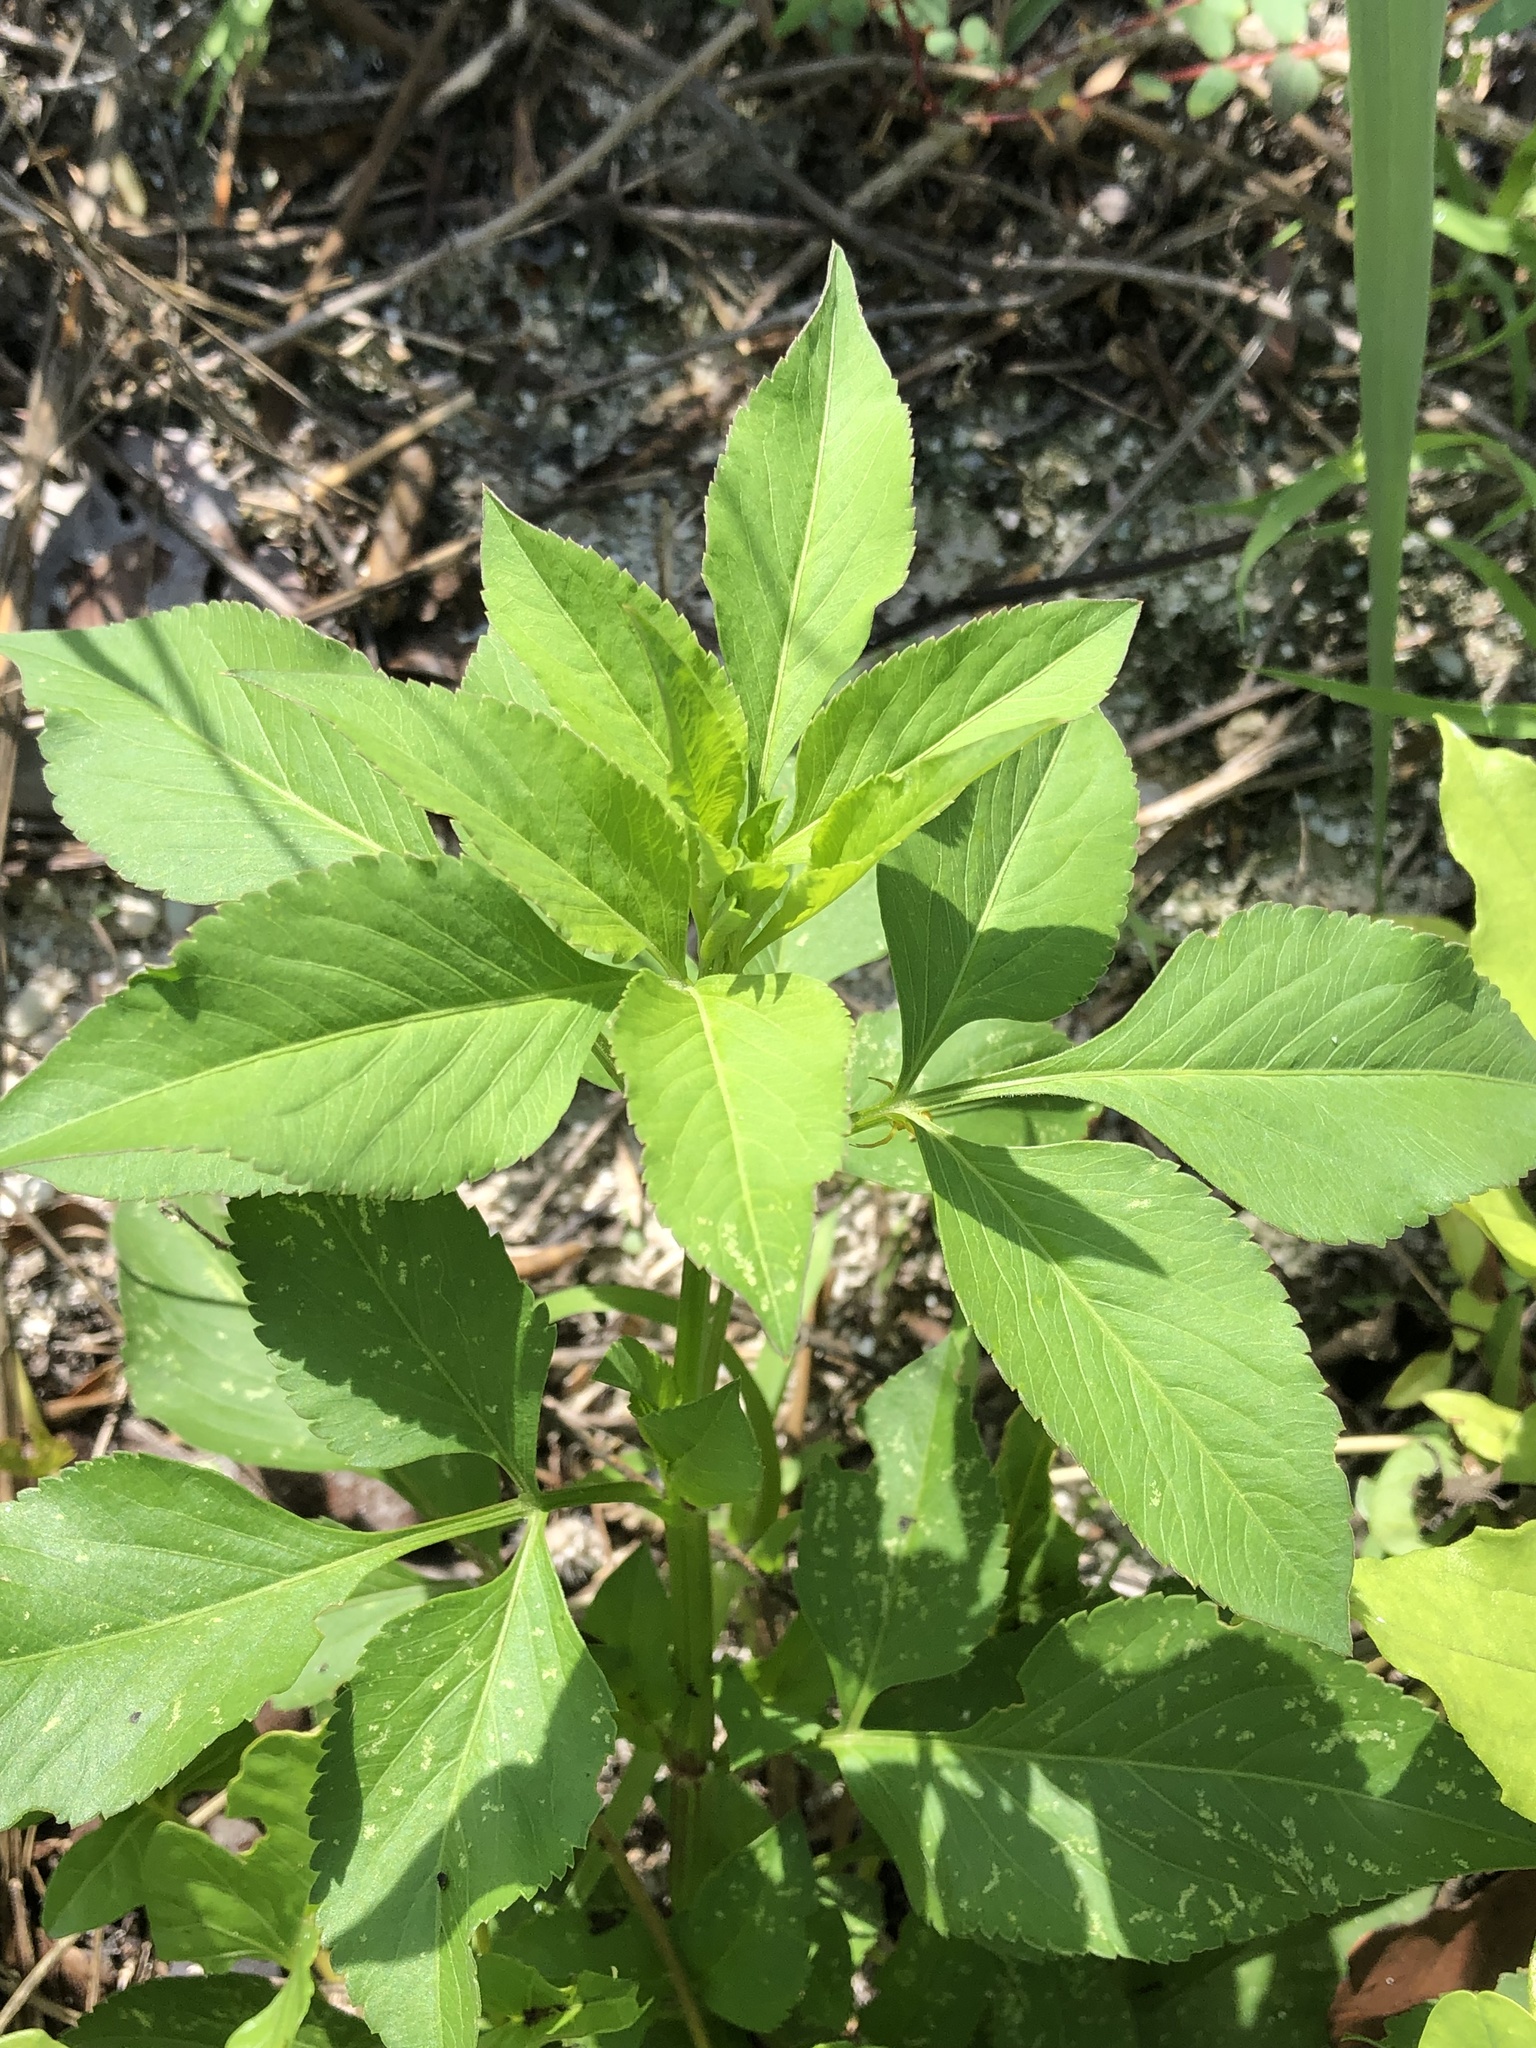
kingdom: Plantae
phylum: Tracheophyta
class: Magnoliopsida
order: Asterales
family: Asteraceae
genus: Bidens
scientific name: Bidens alba
